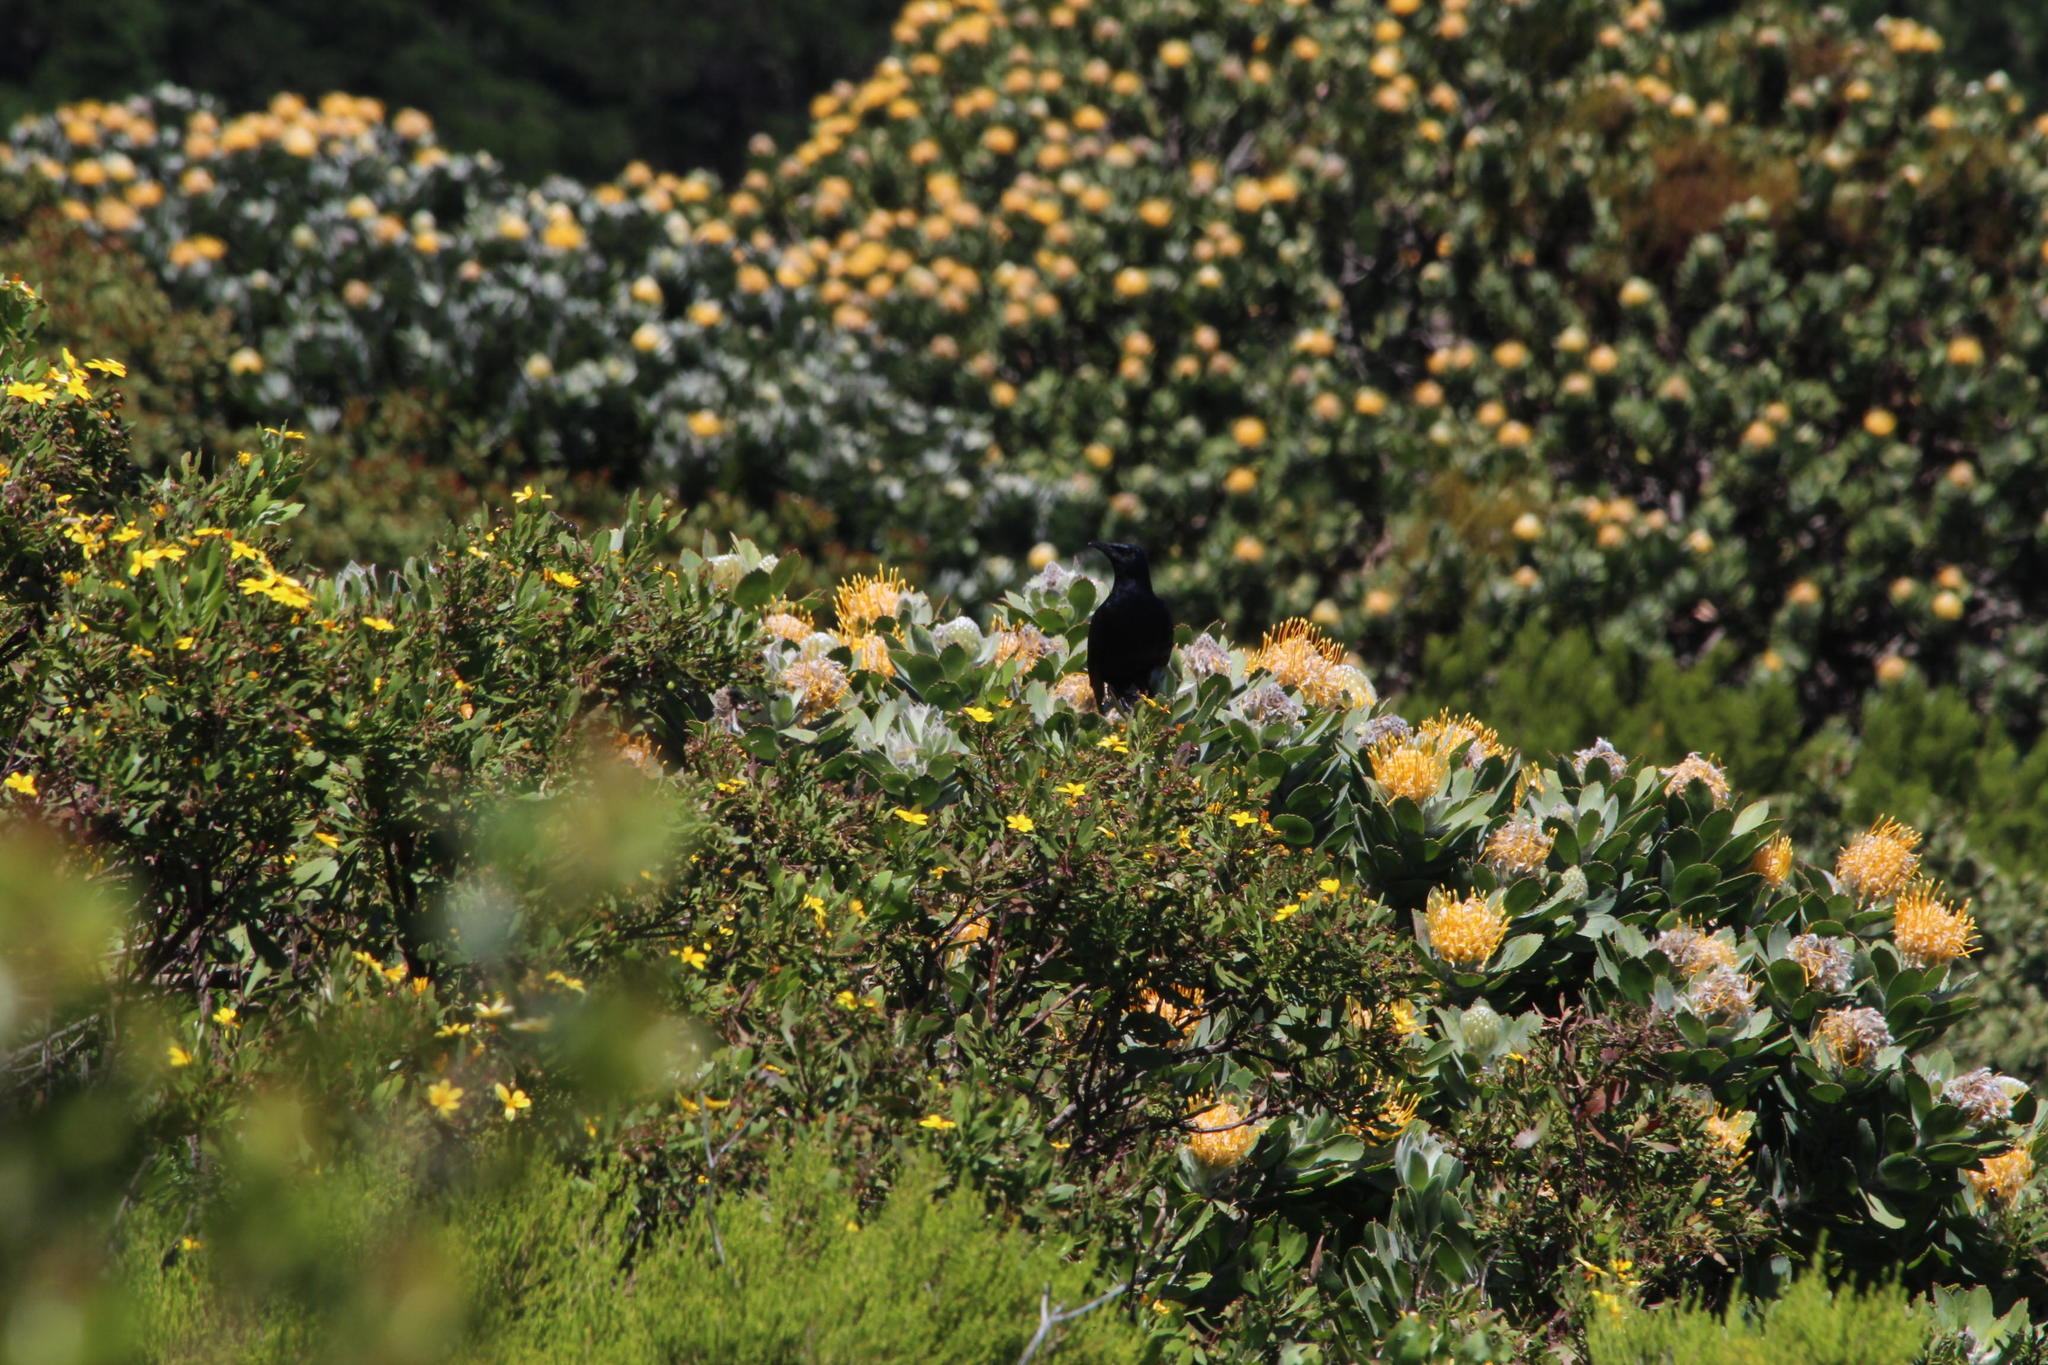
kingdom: Plantae
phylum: Tracheophyta
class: Magnoliopsida
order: Proteales
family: Proteaceae
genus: Leucospermum
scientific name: Leucospermum conocarpodendron
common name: Tree pincushion
